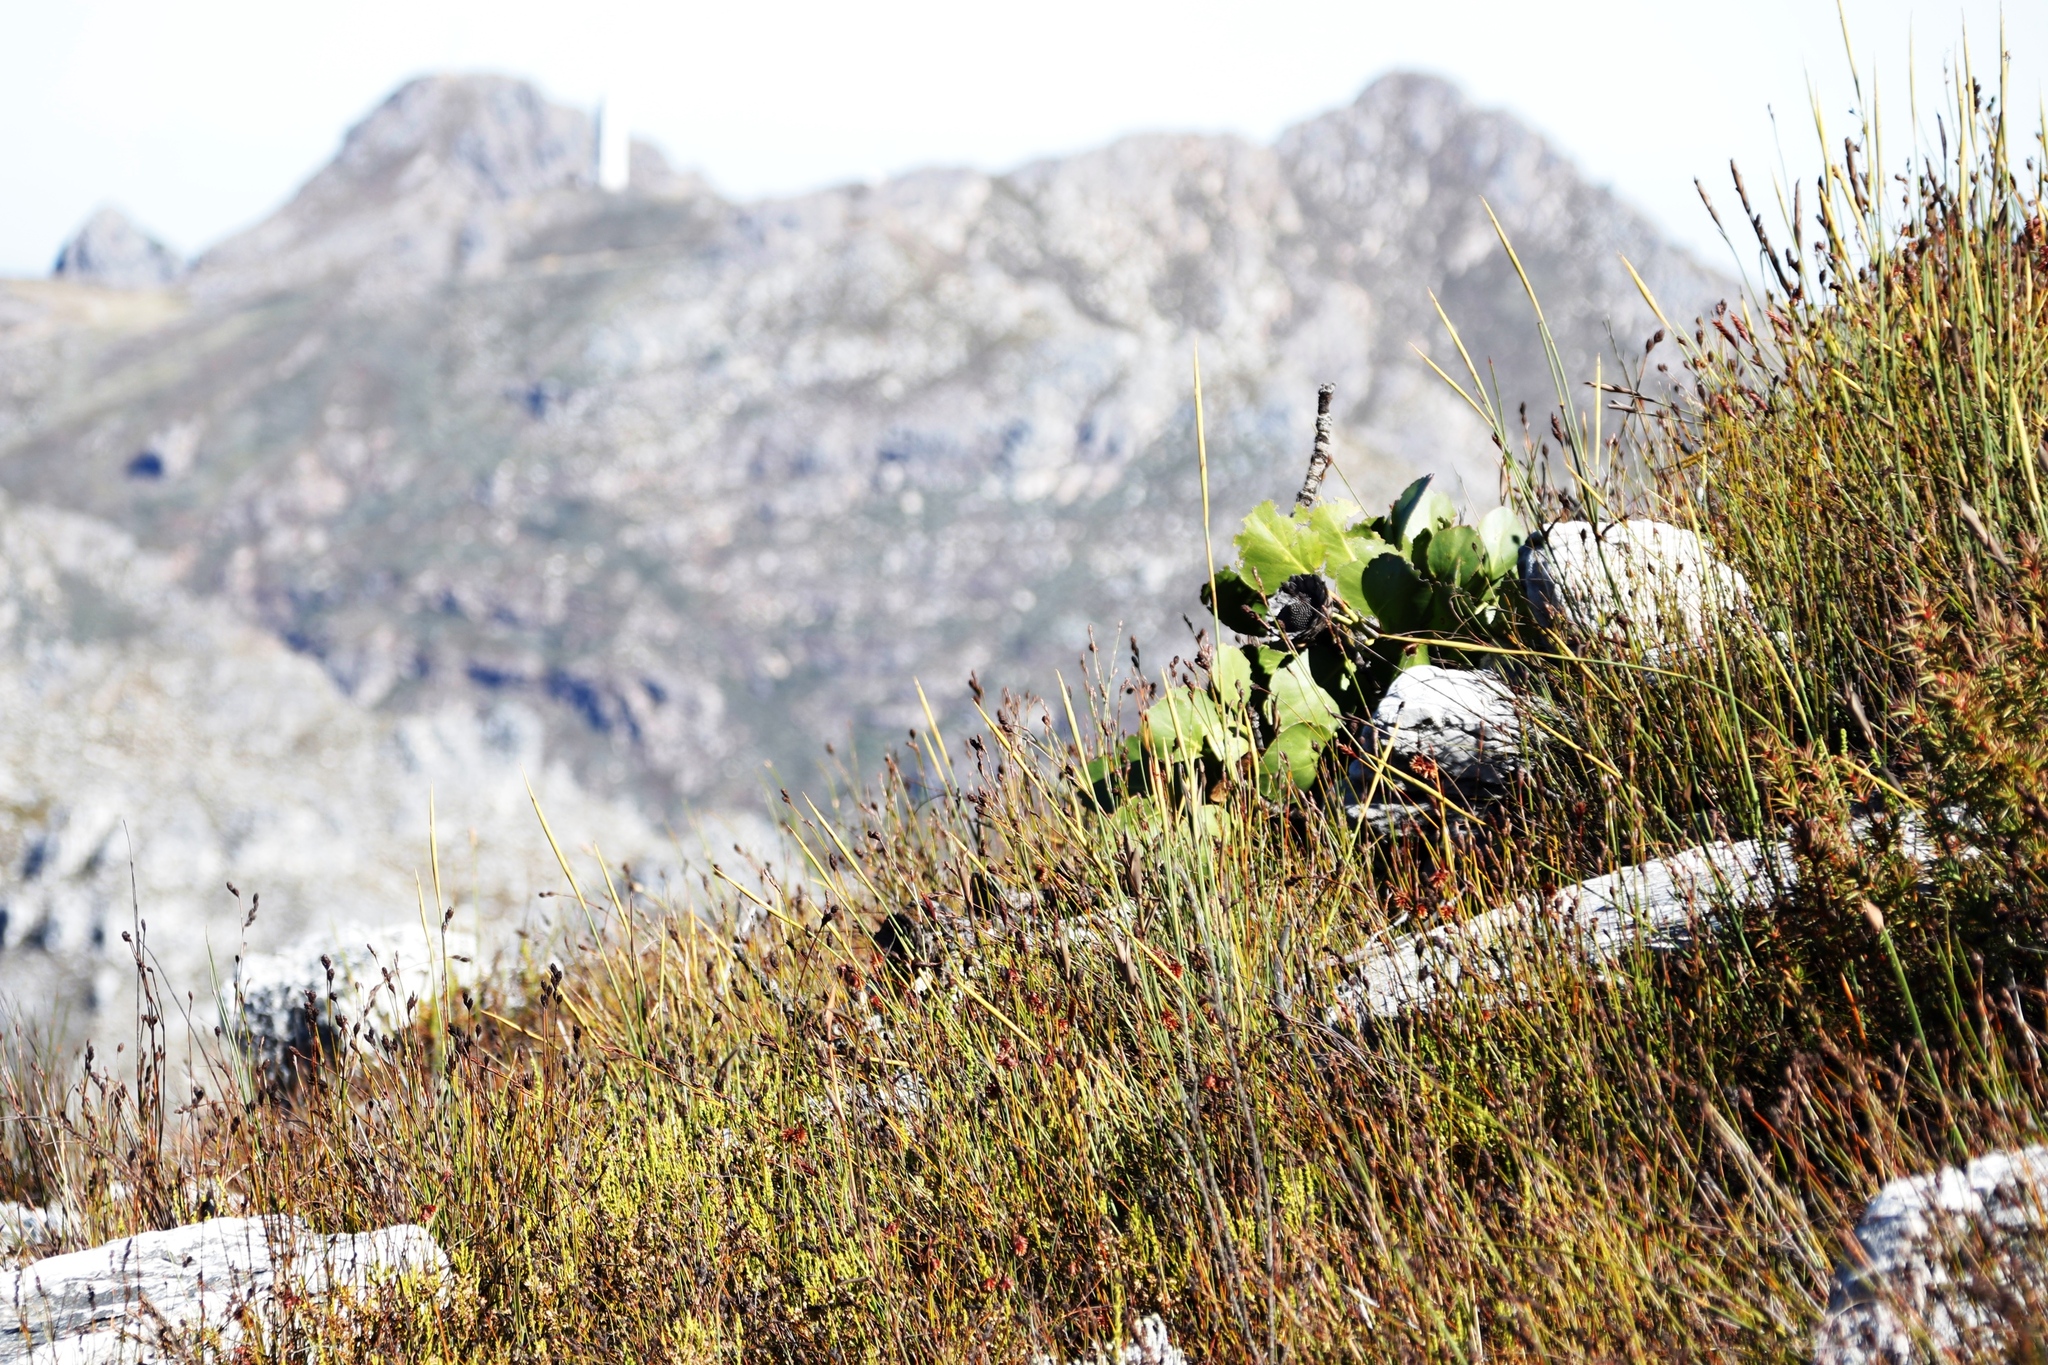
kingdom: Plantae
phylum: Tracheophyta
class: Magnoliopsida
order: Proteales
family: Proteaceae
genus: Protea
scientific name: Protea cynaroides
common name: King protea
